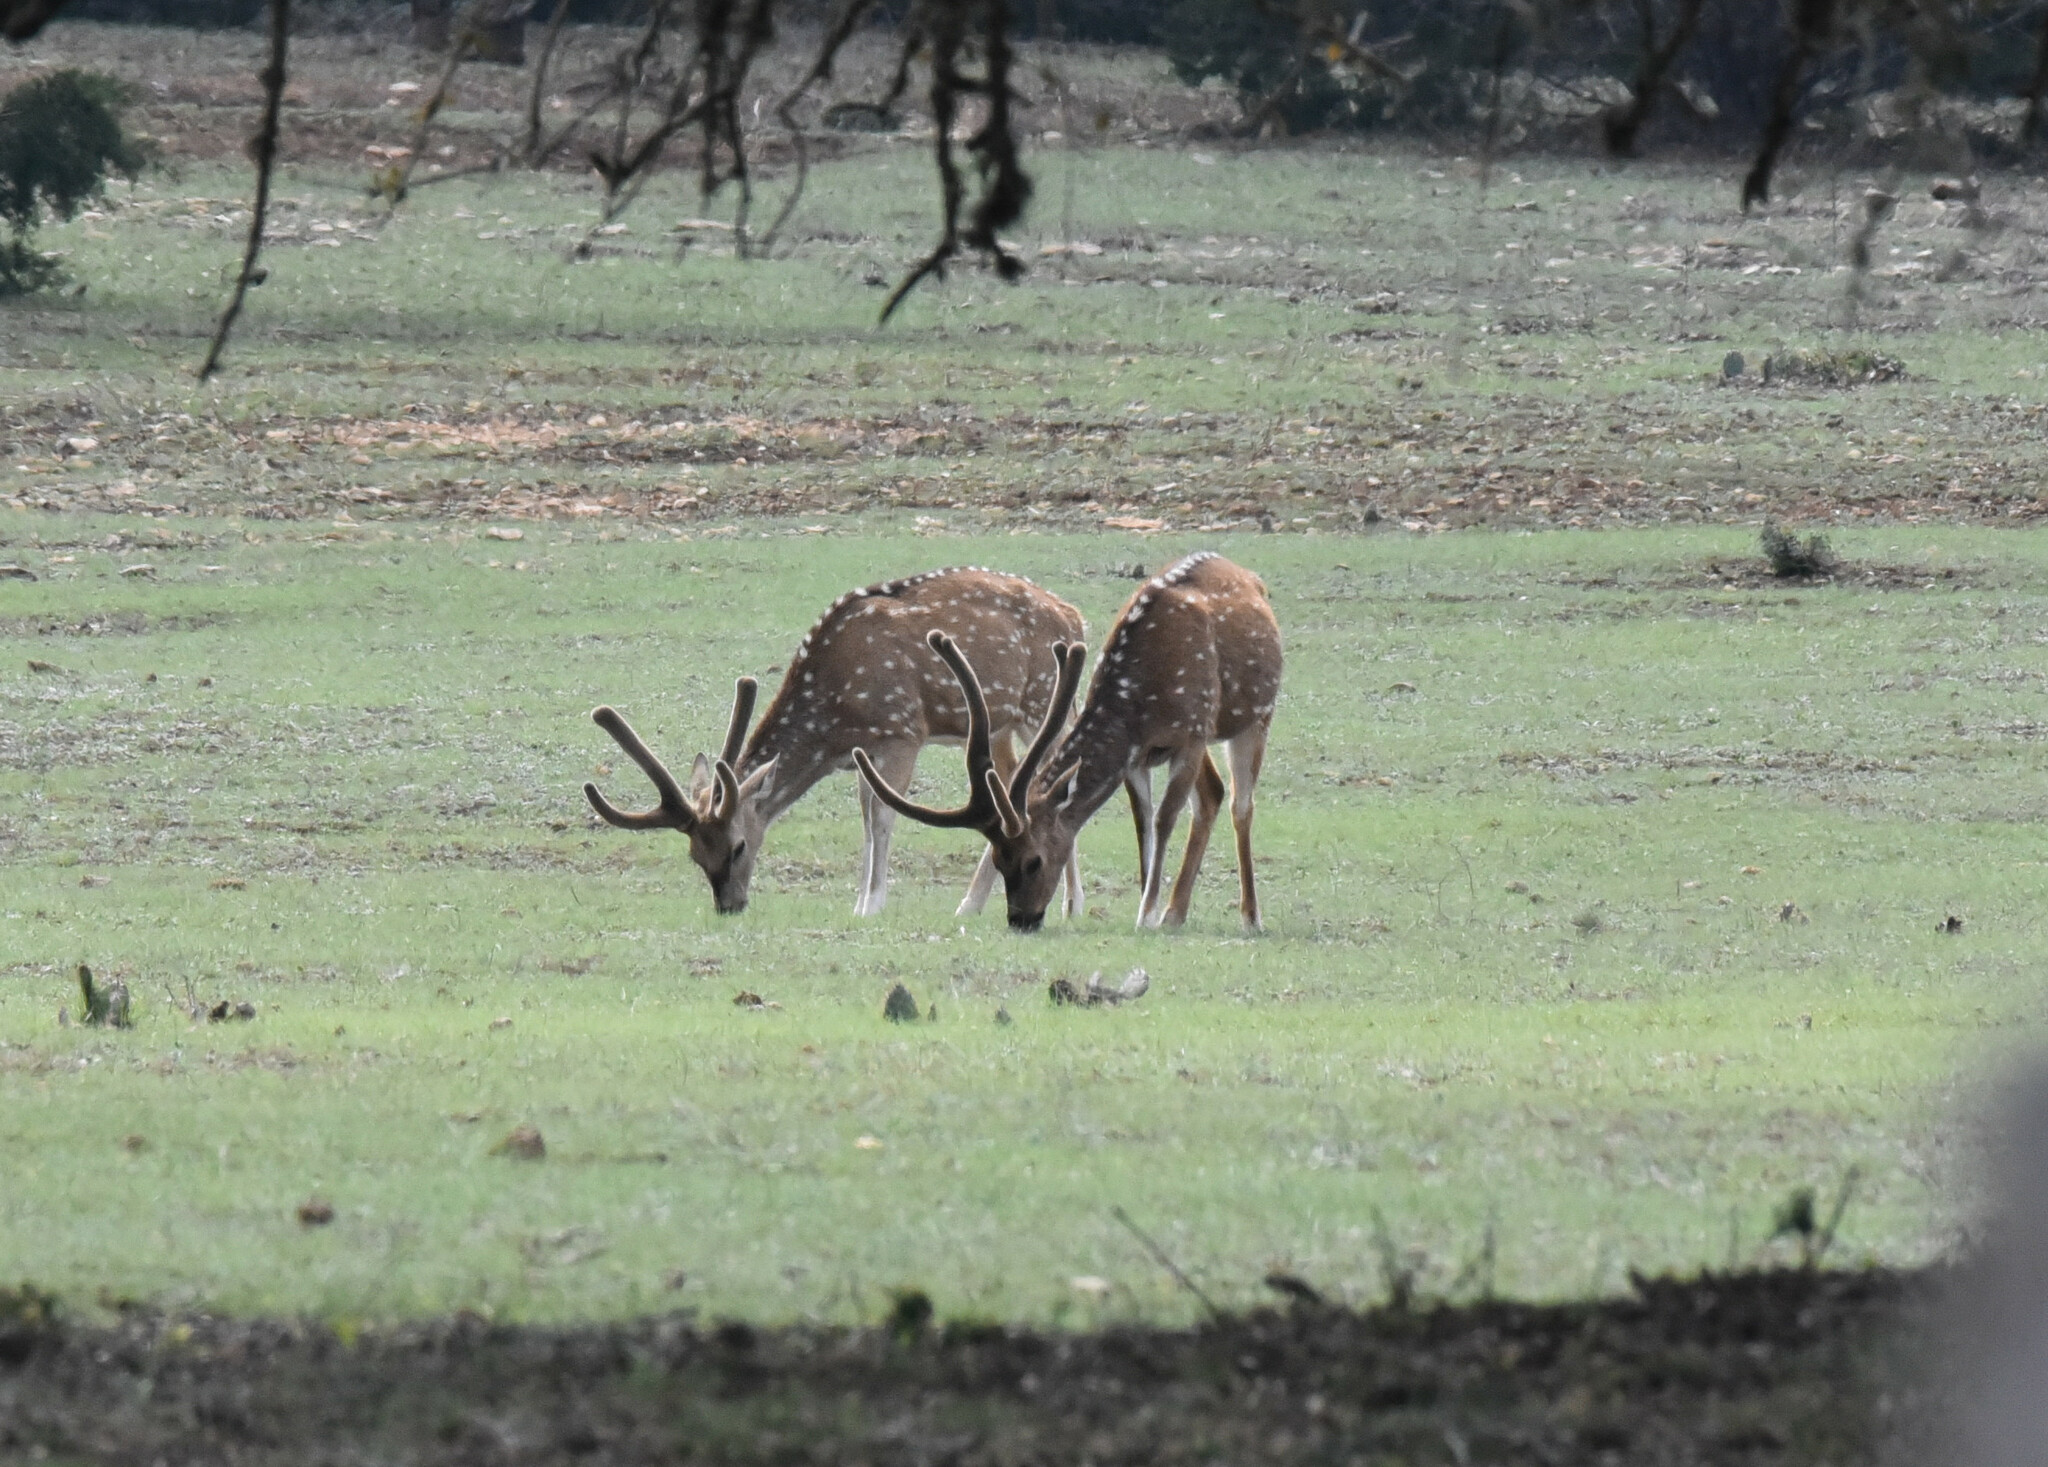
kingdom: Animalia
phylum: Chordata
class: Mammalia
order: Artiodactyla
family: Cervidae
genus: Axis
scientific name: Axis axis
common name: Chital
